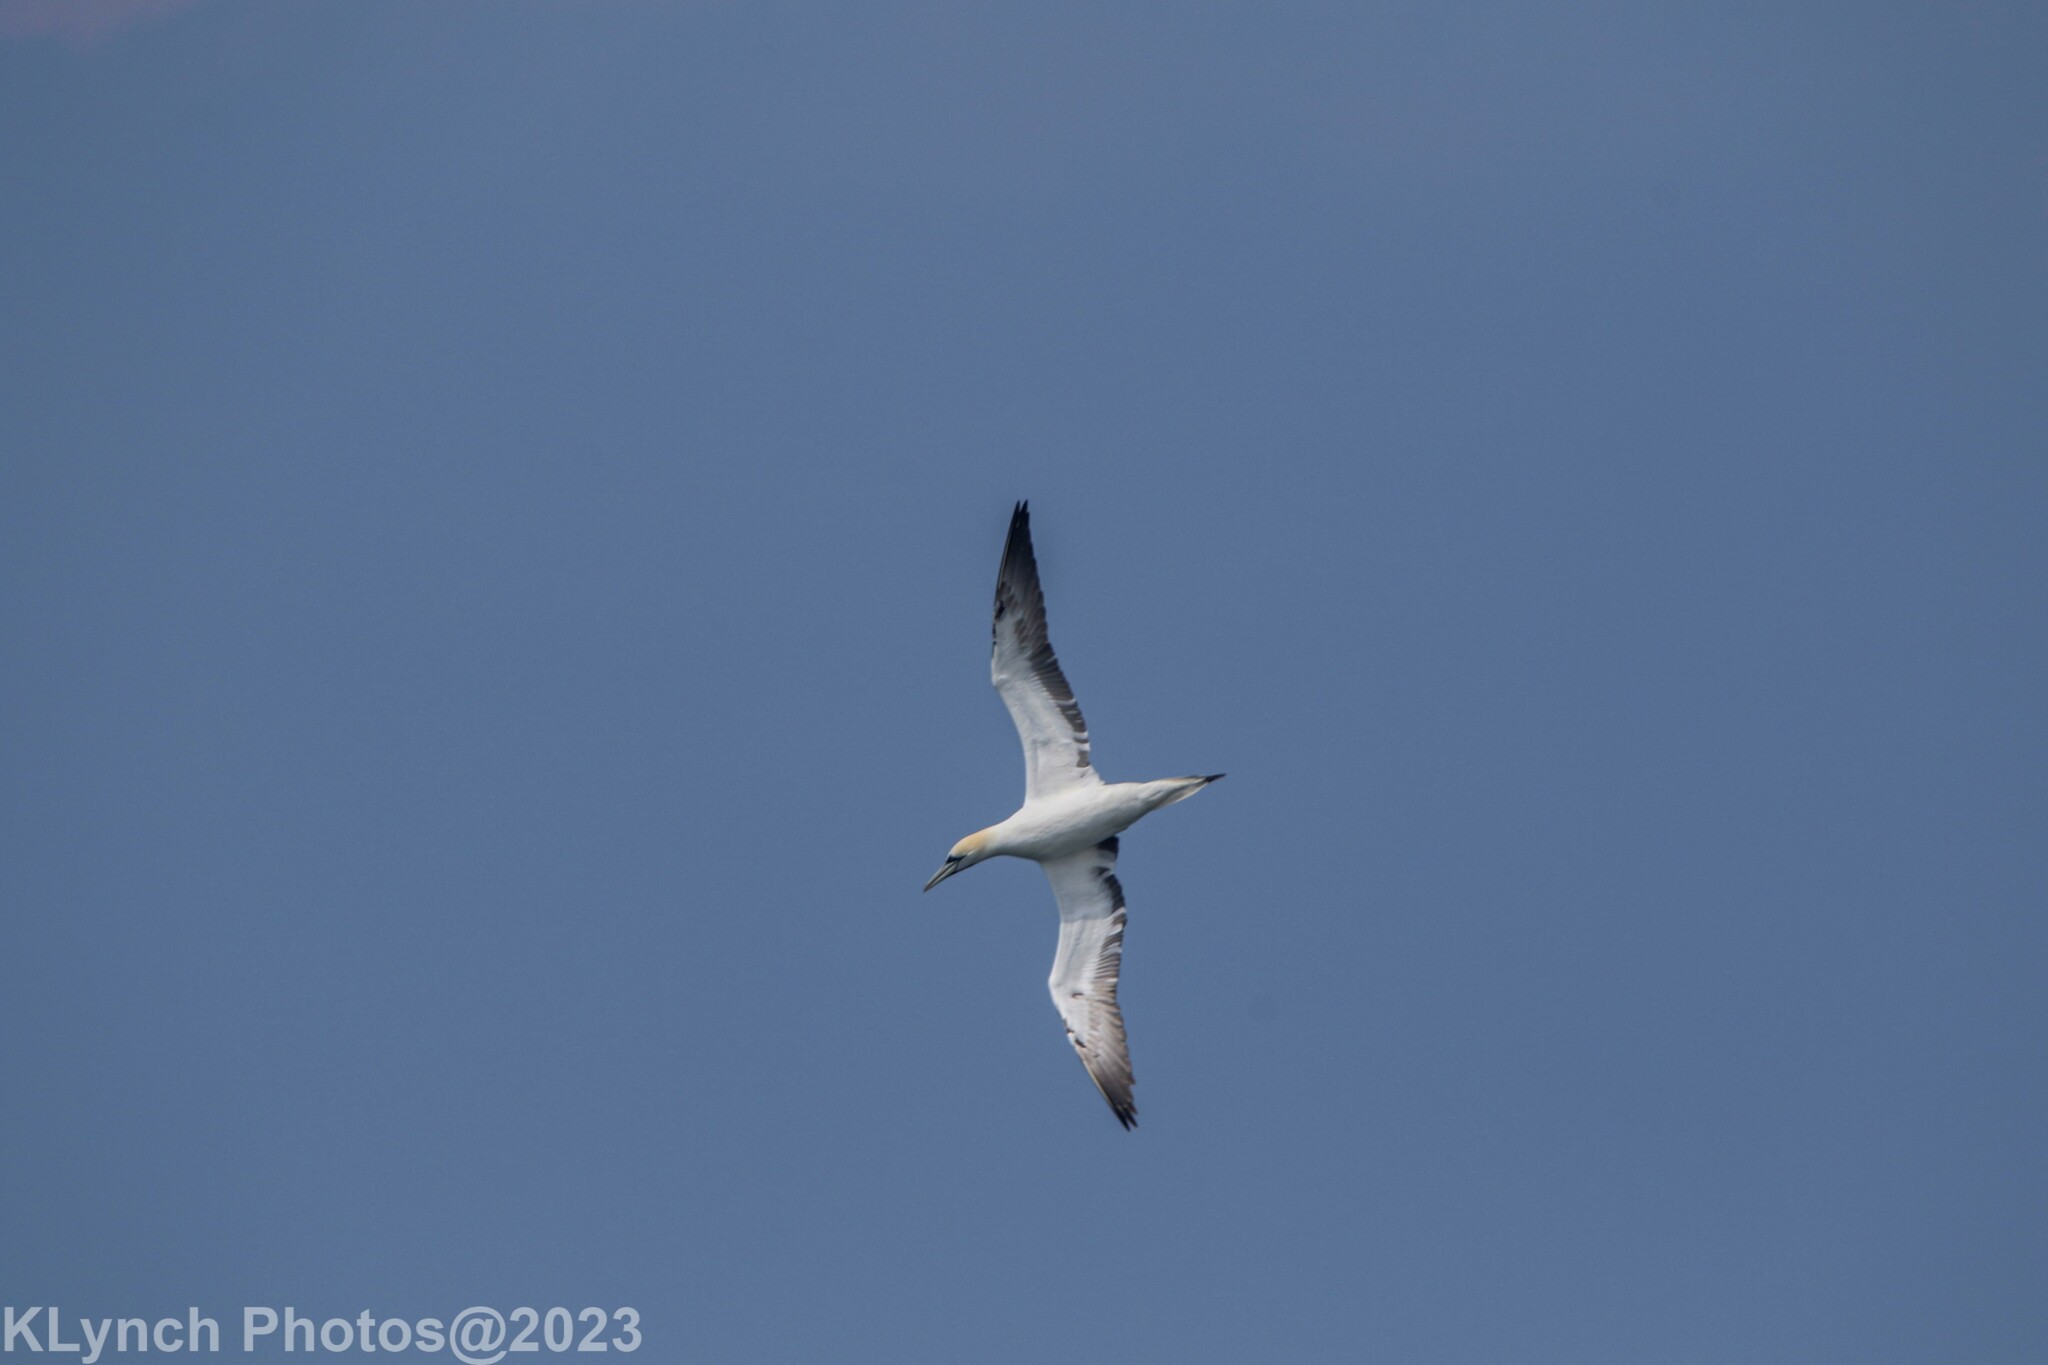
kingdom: Animalia
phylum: Chordata
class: Aves
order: Suliformes
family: Sulidae
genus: Morus
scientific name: Morus bassanus
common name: Northern gannet
